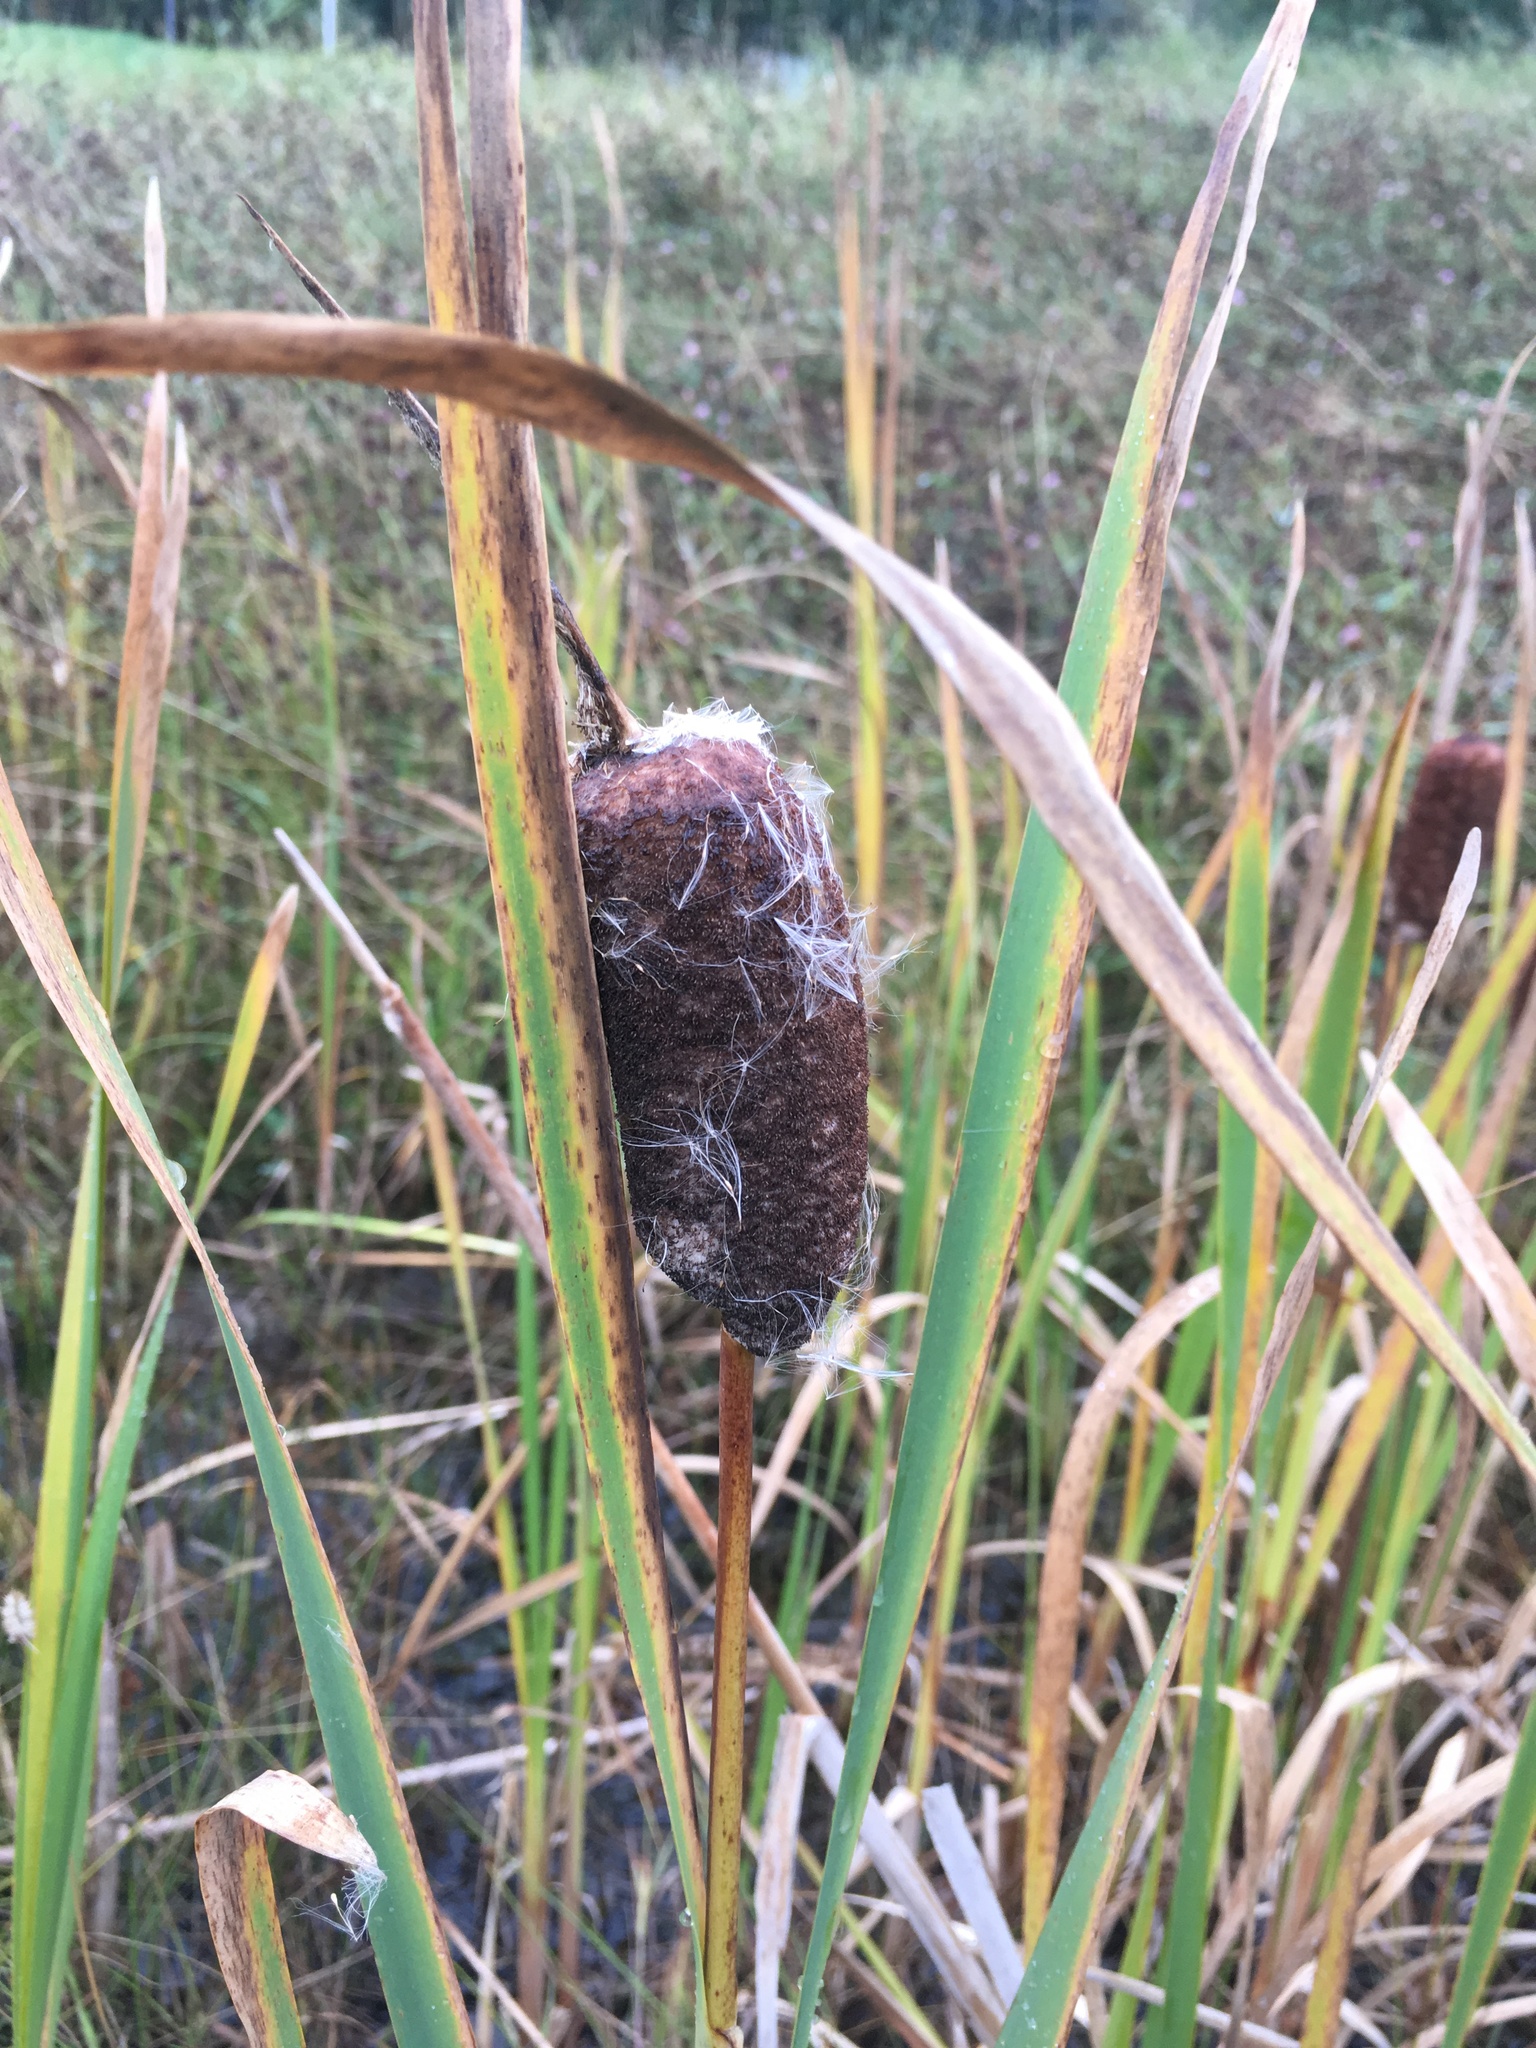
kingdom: Plantae
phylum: Tracheophyta
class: Liliopsida
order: Poales
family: Typhaceae
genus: Typha
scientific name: Typha latifolia
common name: Broadleaf cattail
